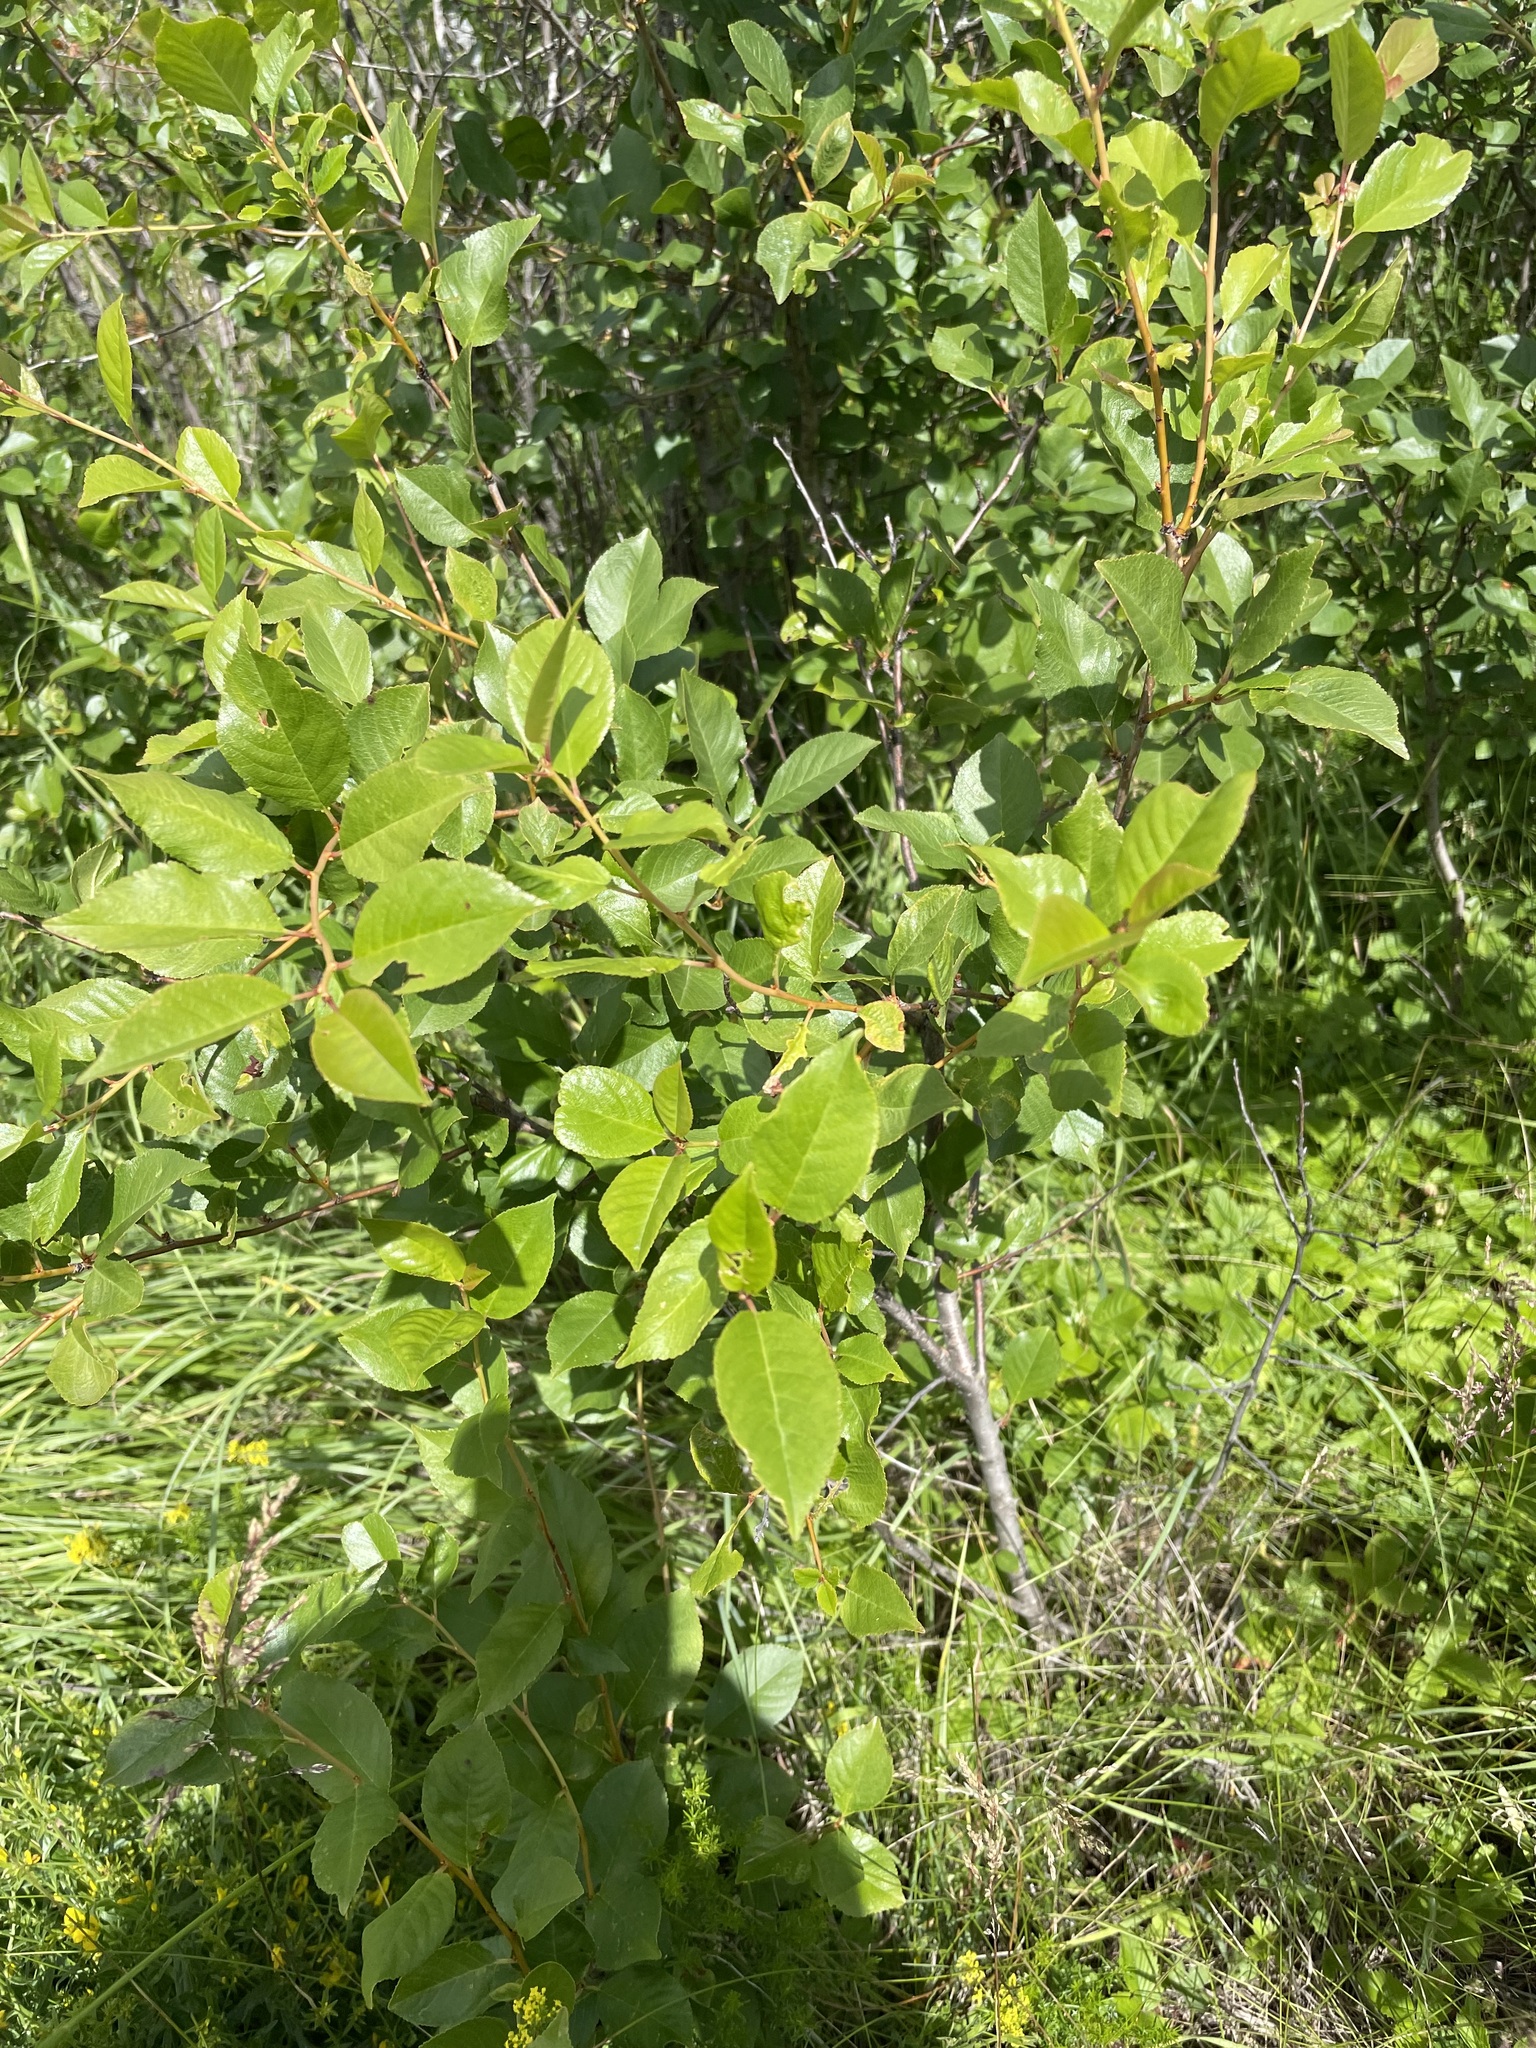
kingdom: Plantae
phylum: Tracheophyta
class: Magnoliopsida
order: Rosales
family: Rosaceae
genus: Prunus
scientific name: Prunus cerasus
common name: Morello cherry
